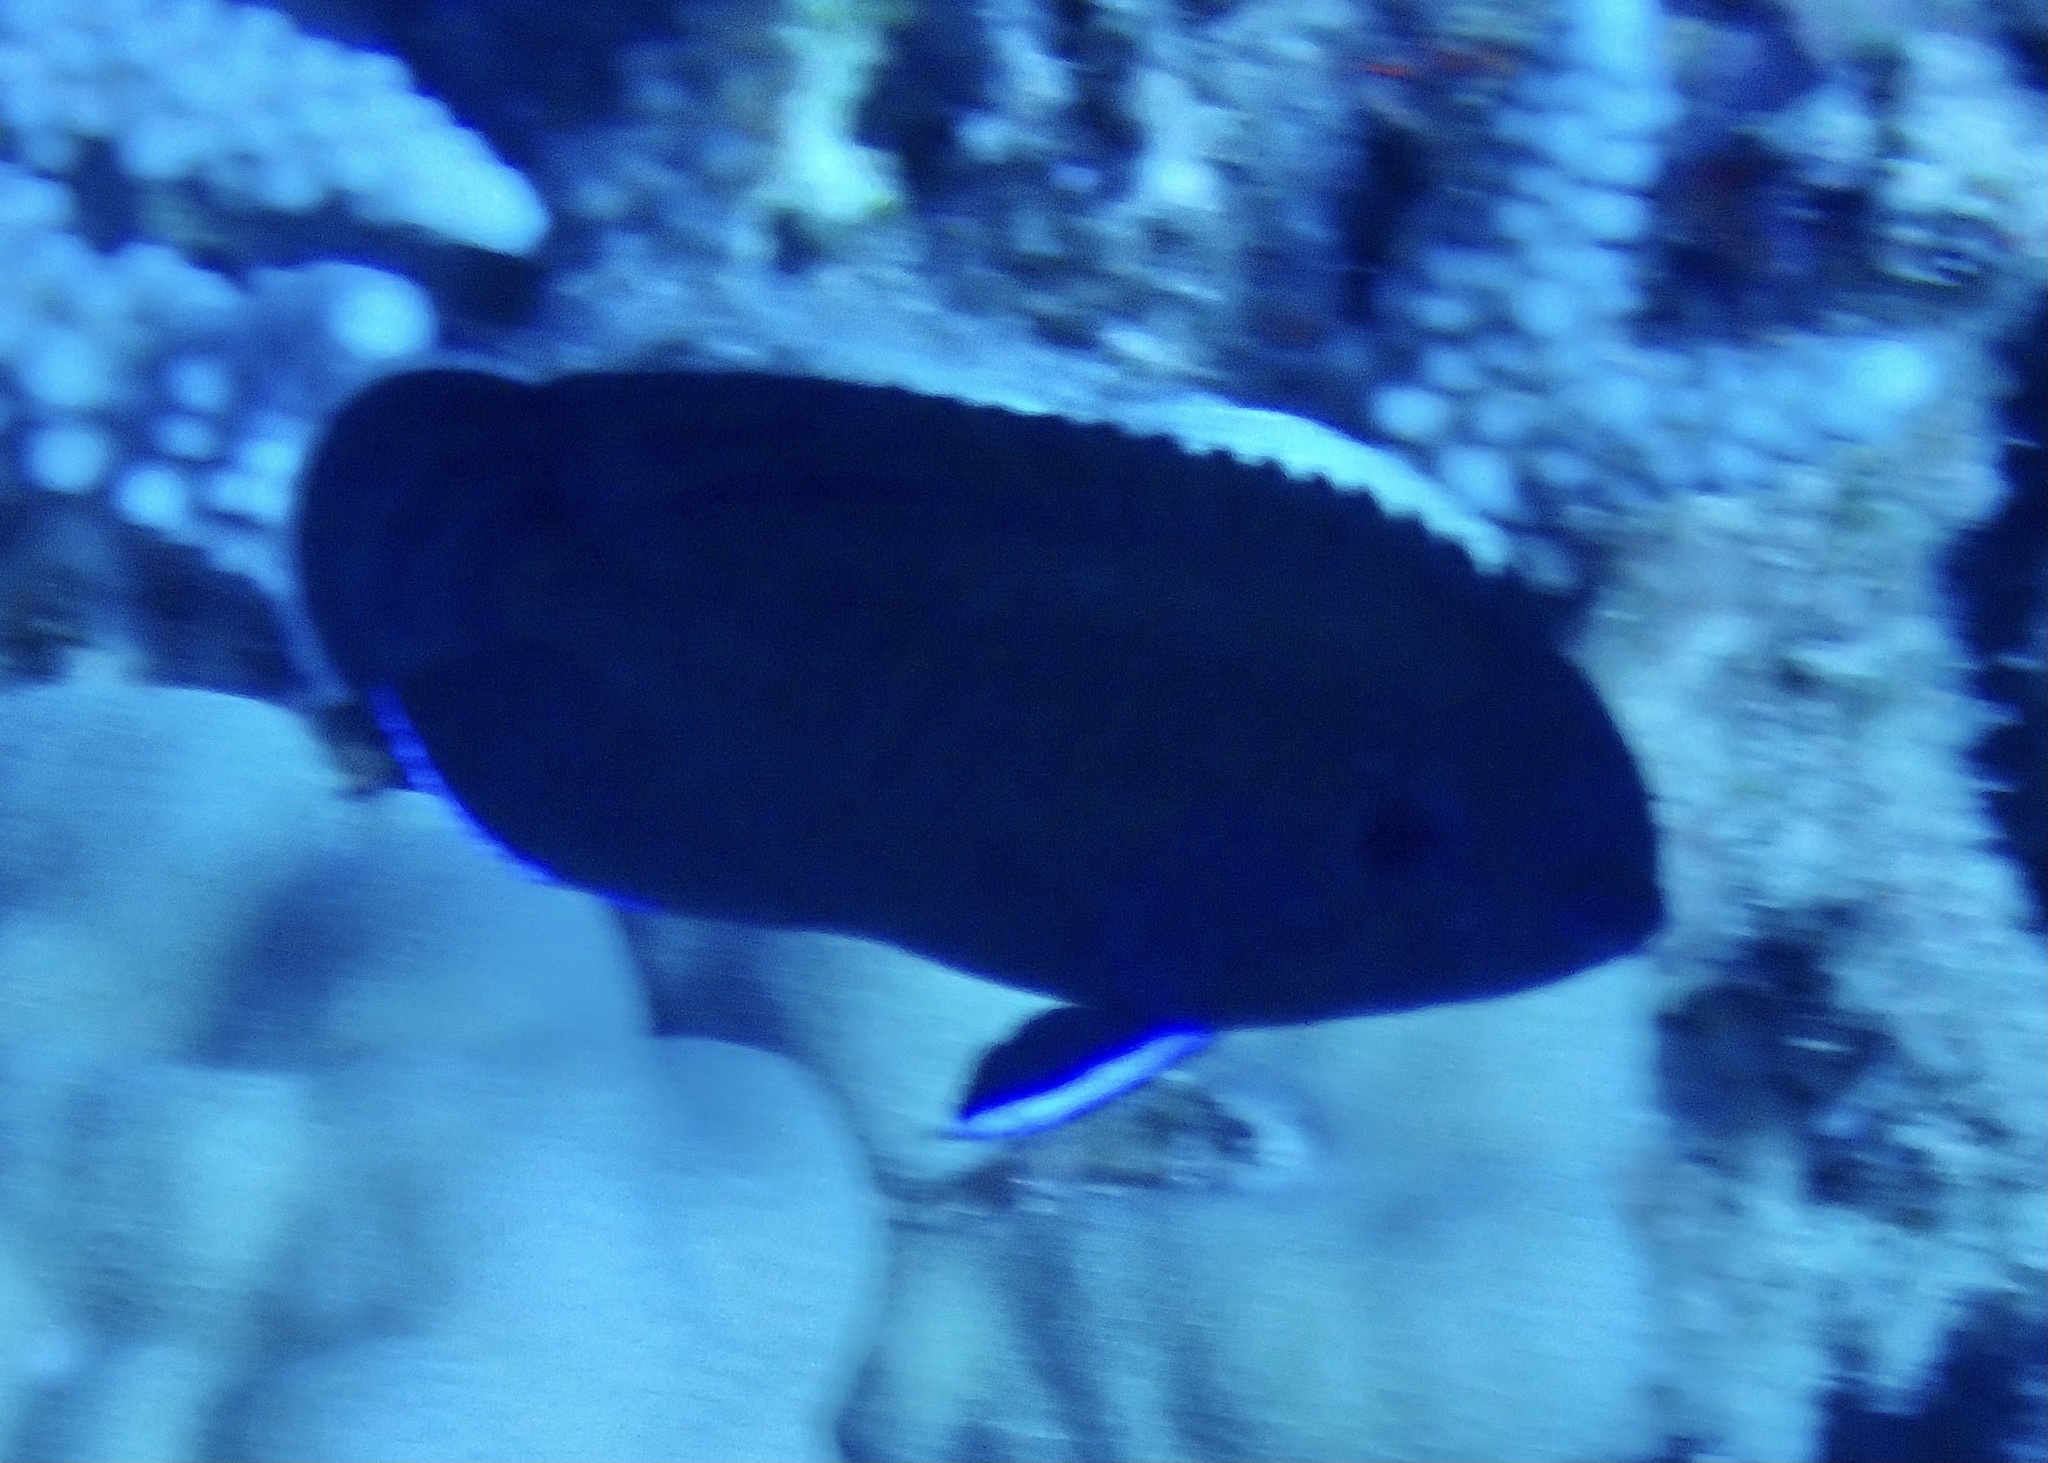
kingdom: Animalia
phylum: Chordata
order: Perciformes
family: Pomacanthidae
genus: Centropyge
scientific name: Centropyge multispinis
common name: Many-spined angelfish
